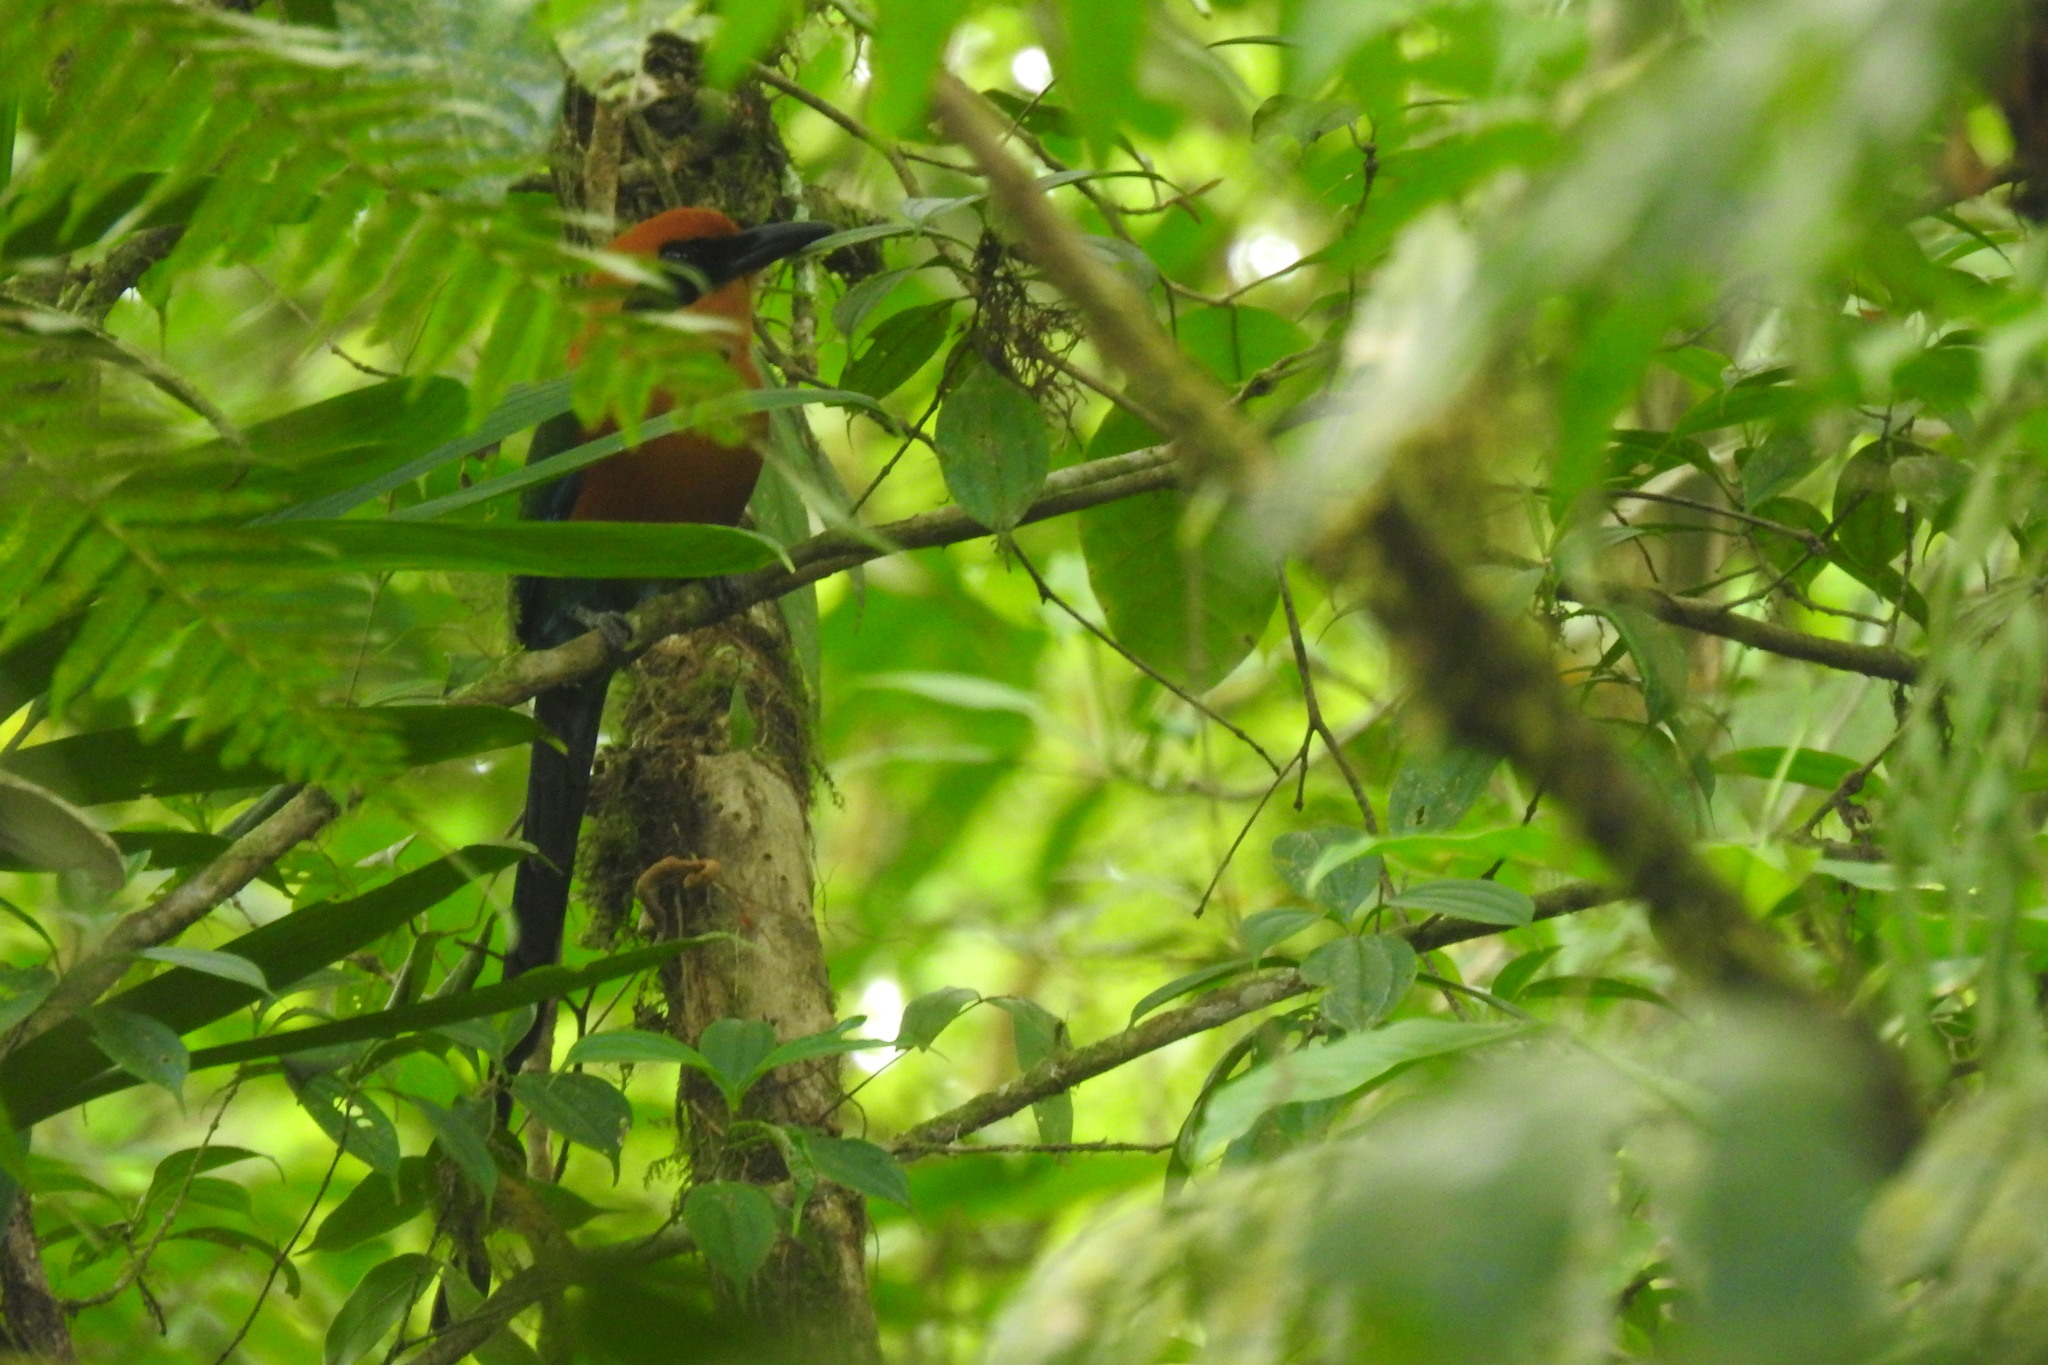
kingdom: Animalia
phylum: Chordata
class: Aves
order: Coraciiformes
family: Momotidae
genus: Baryphthengus
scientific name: Baryphthengus martii
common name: Rufous motmot
